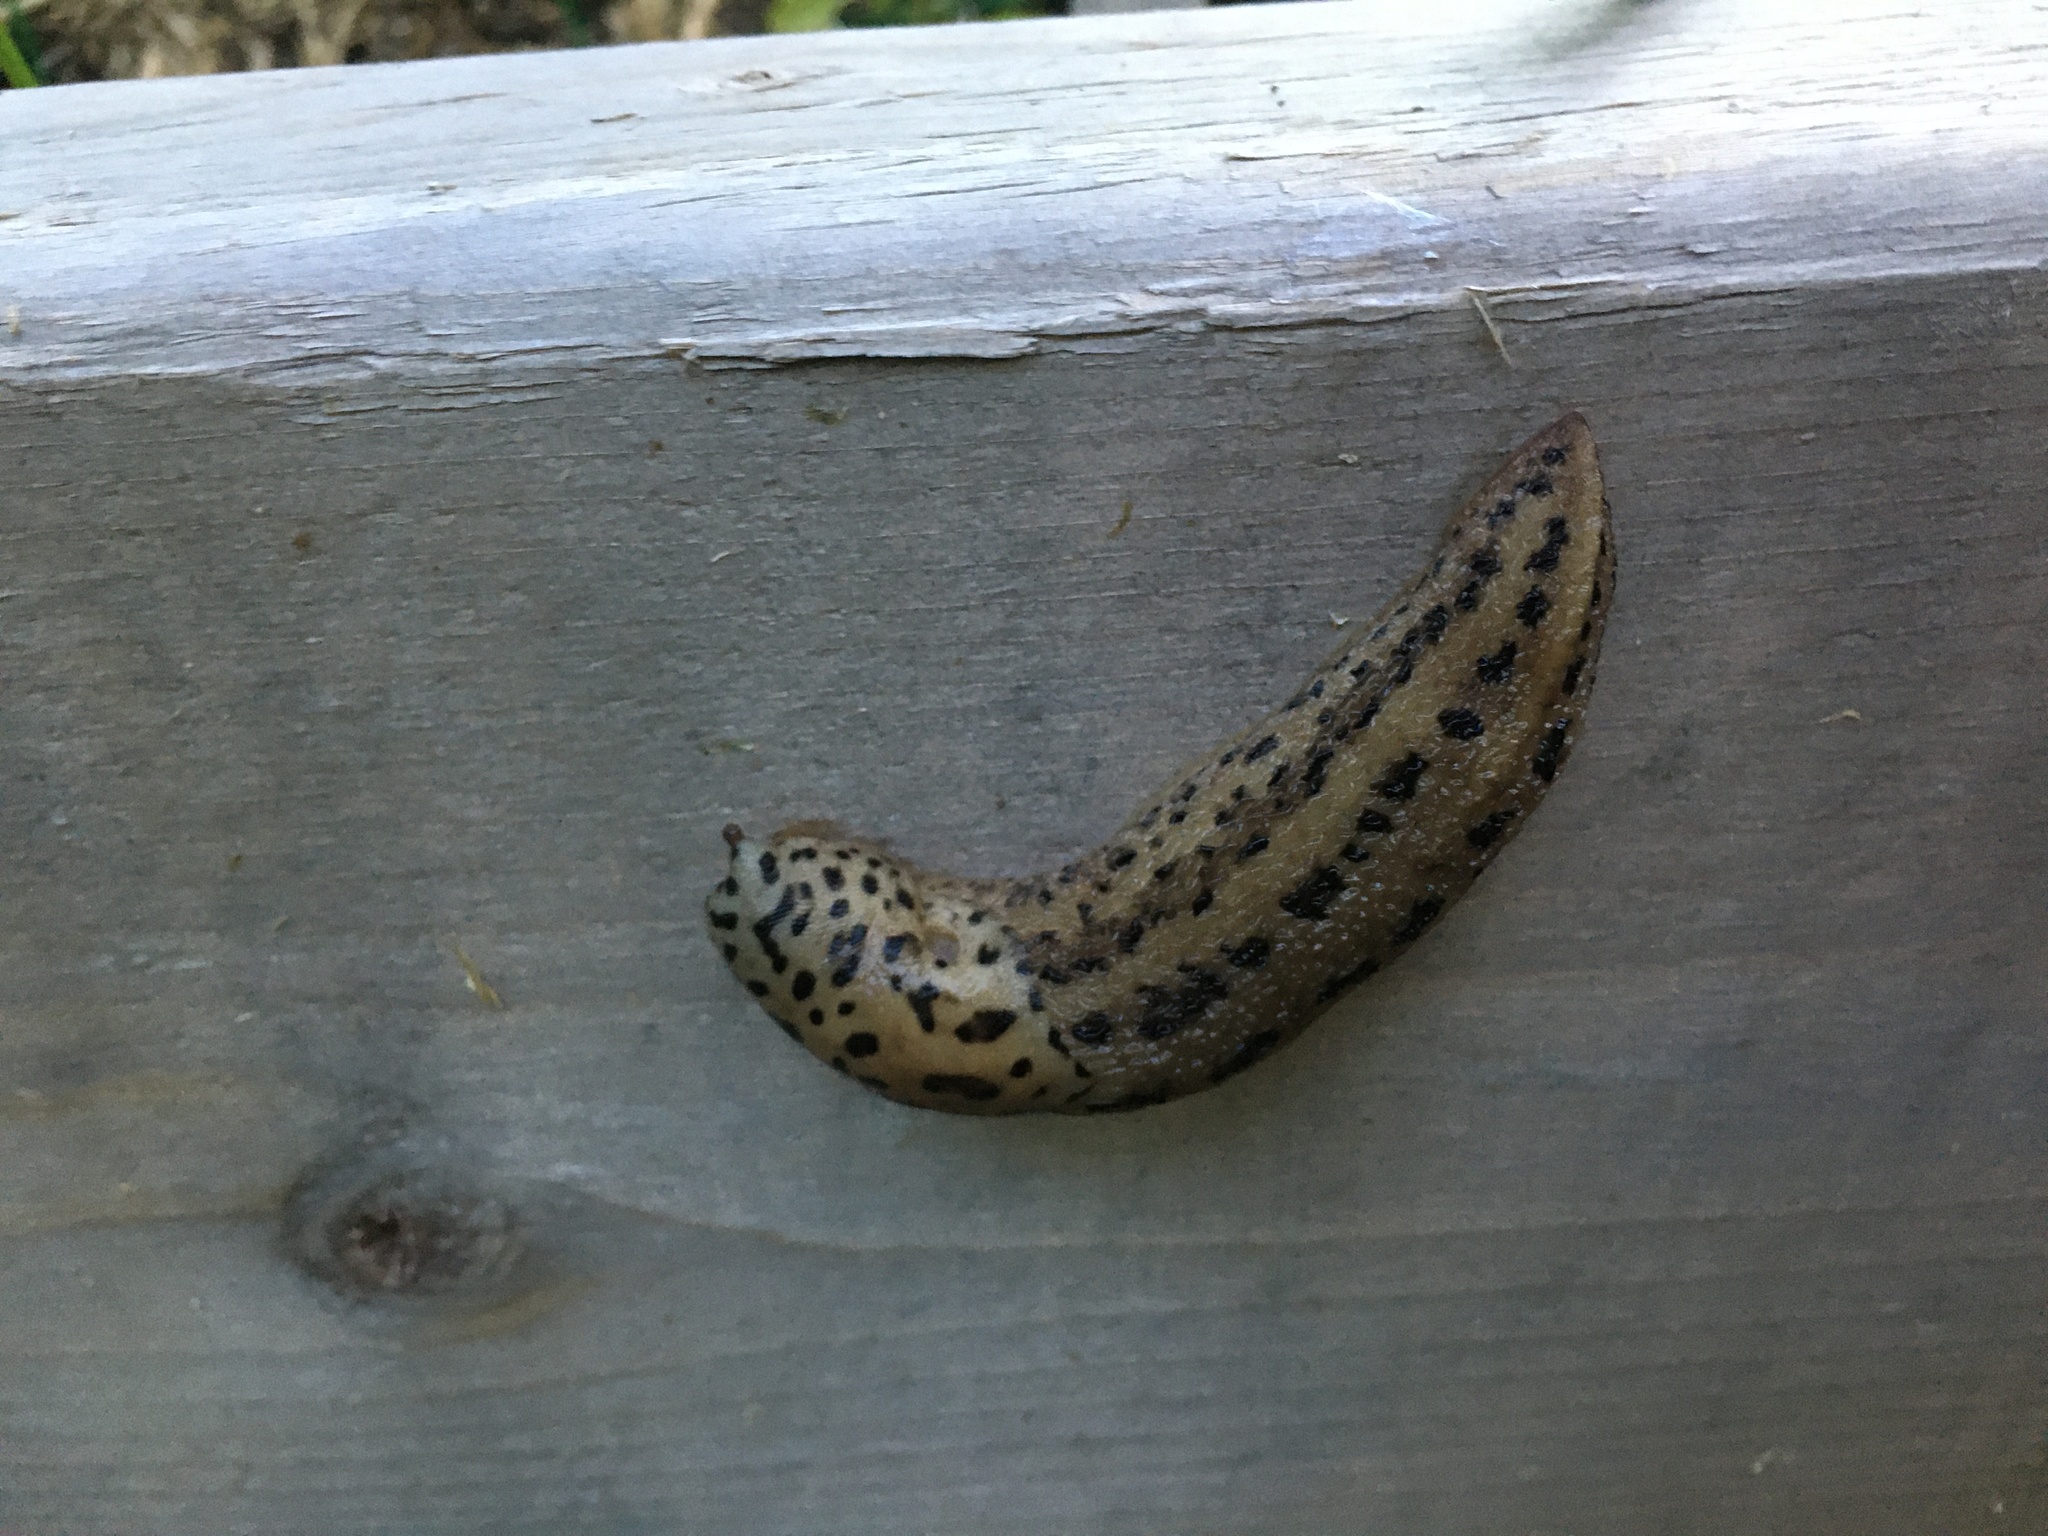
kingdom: Animalia
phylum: Mollusca
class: Gastropoda
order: Stylommatophora
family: Limacidae
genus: Limax
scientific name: Limax maximus
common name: Great grey slug
